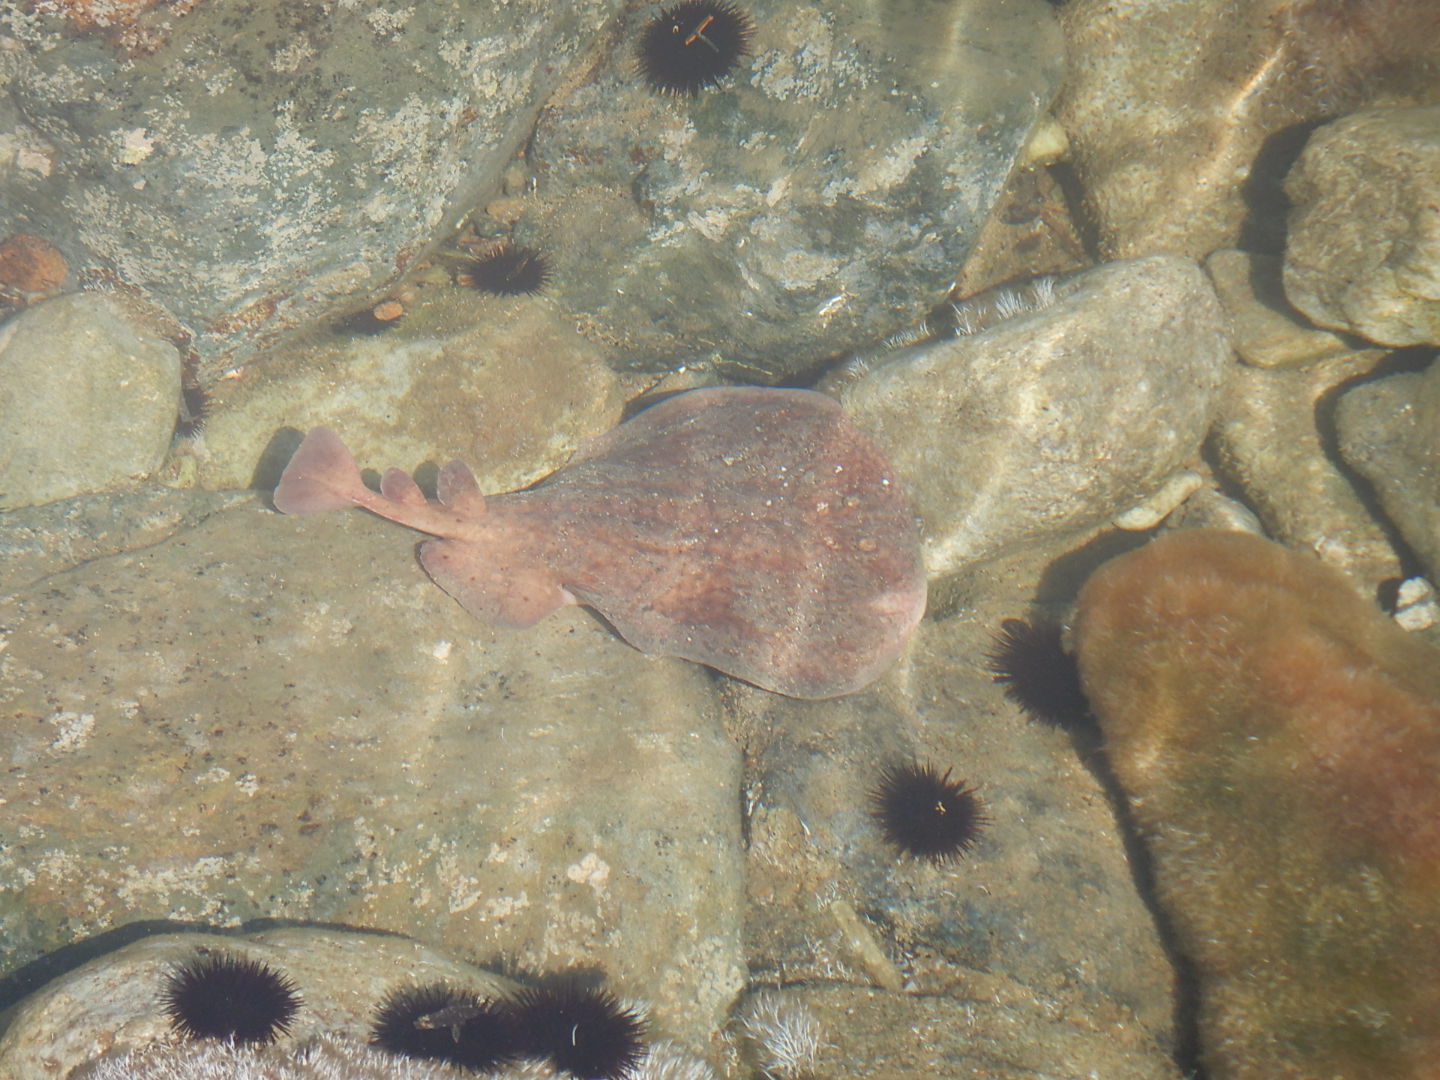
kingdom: Animalia
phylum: Chordata
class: Elasmobranchii
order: Torpediniformes
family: Torpedinidae
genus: Torpedo
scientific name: Torpedo marmorata
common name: Marbled electric ray
